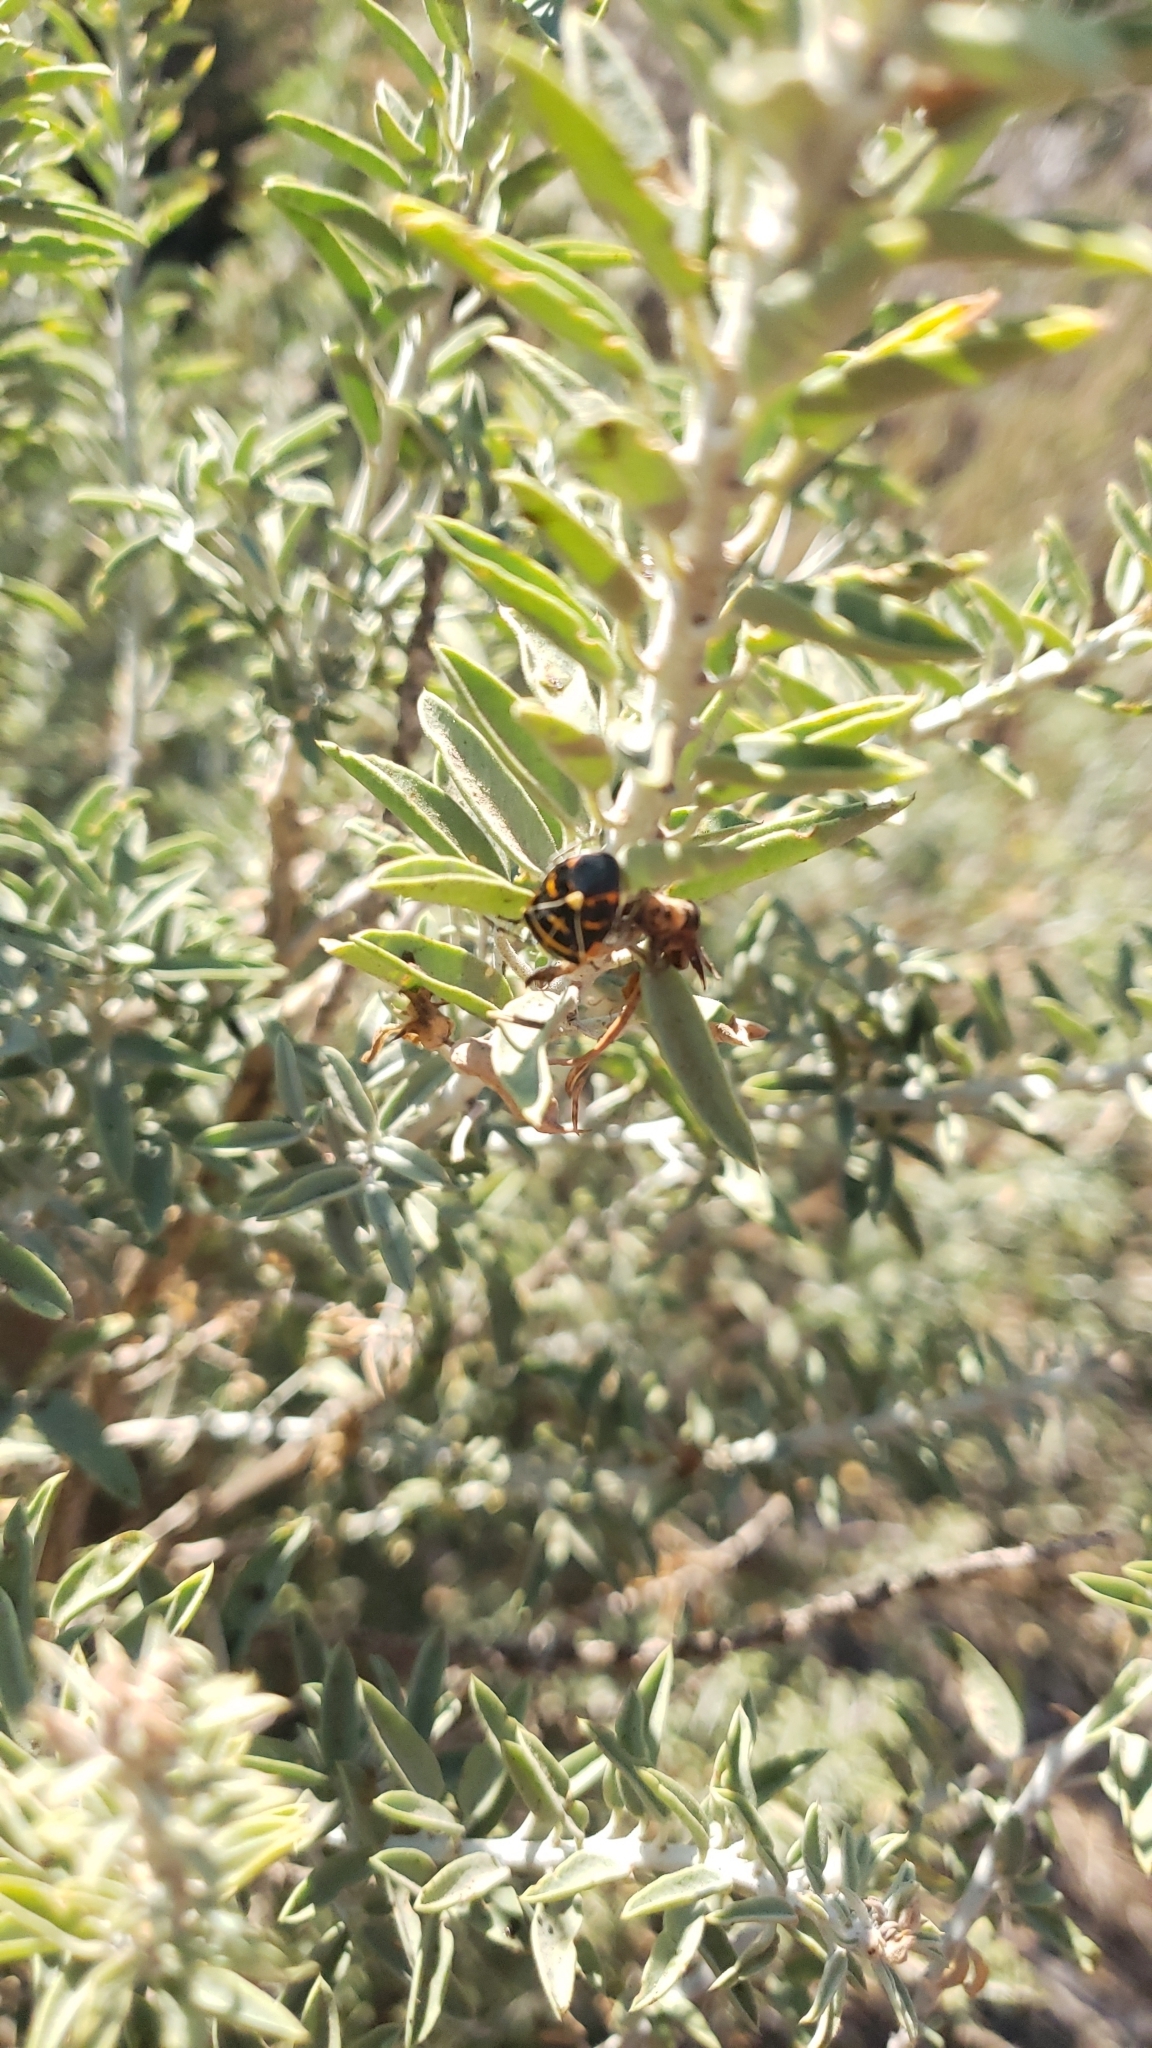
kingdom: Animalia
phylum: Arthropoda
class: Insecta
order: Hemiptera
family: Pentatomidae
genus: Murgantia
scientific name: Murgantia histrionica
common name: Harlequin bug
